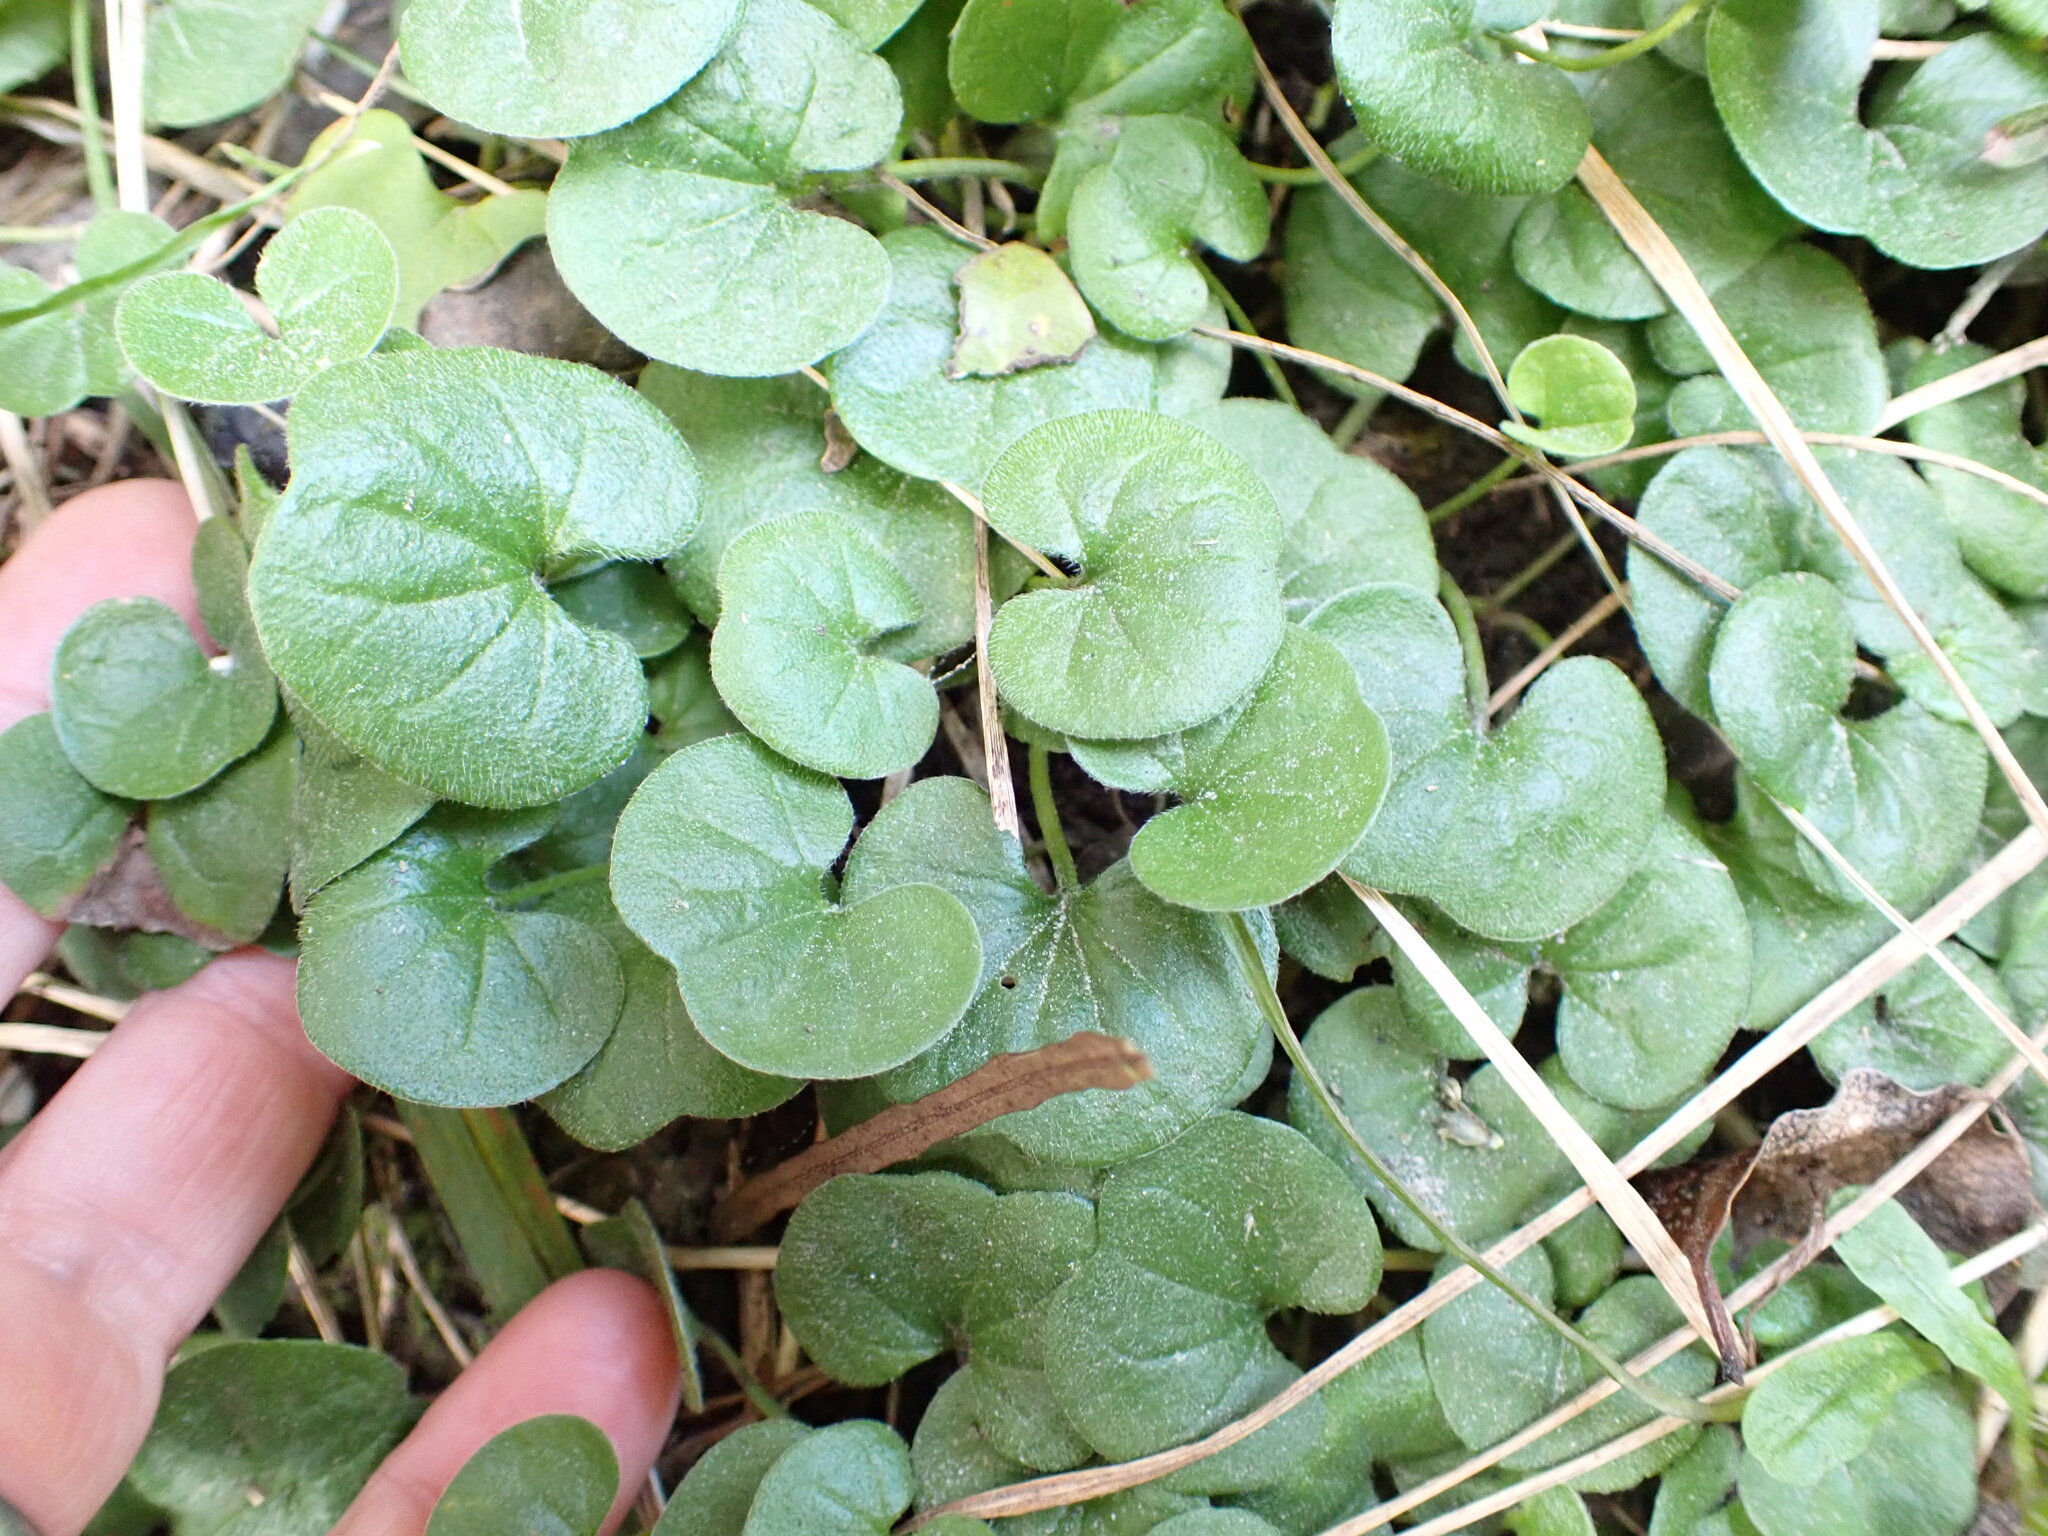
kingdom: Plantae
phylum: Tracheophyta
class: Magnoliopsida
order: Solanales
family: Convolvulaceae
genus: Dichondra
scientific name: Dichondra repens
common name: Kidneyweed
